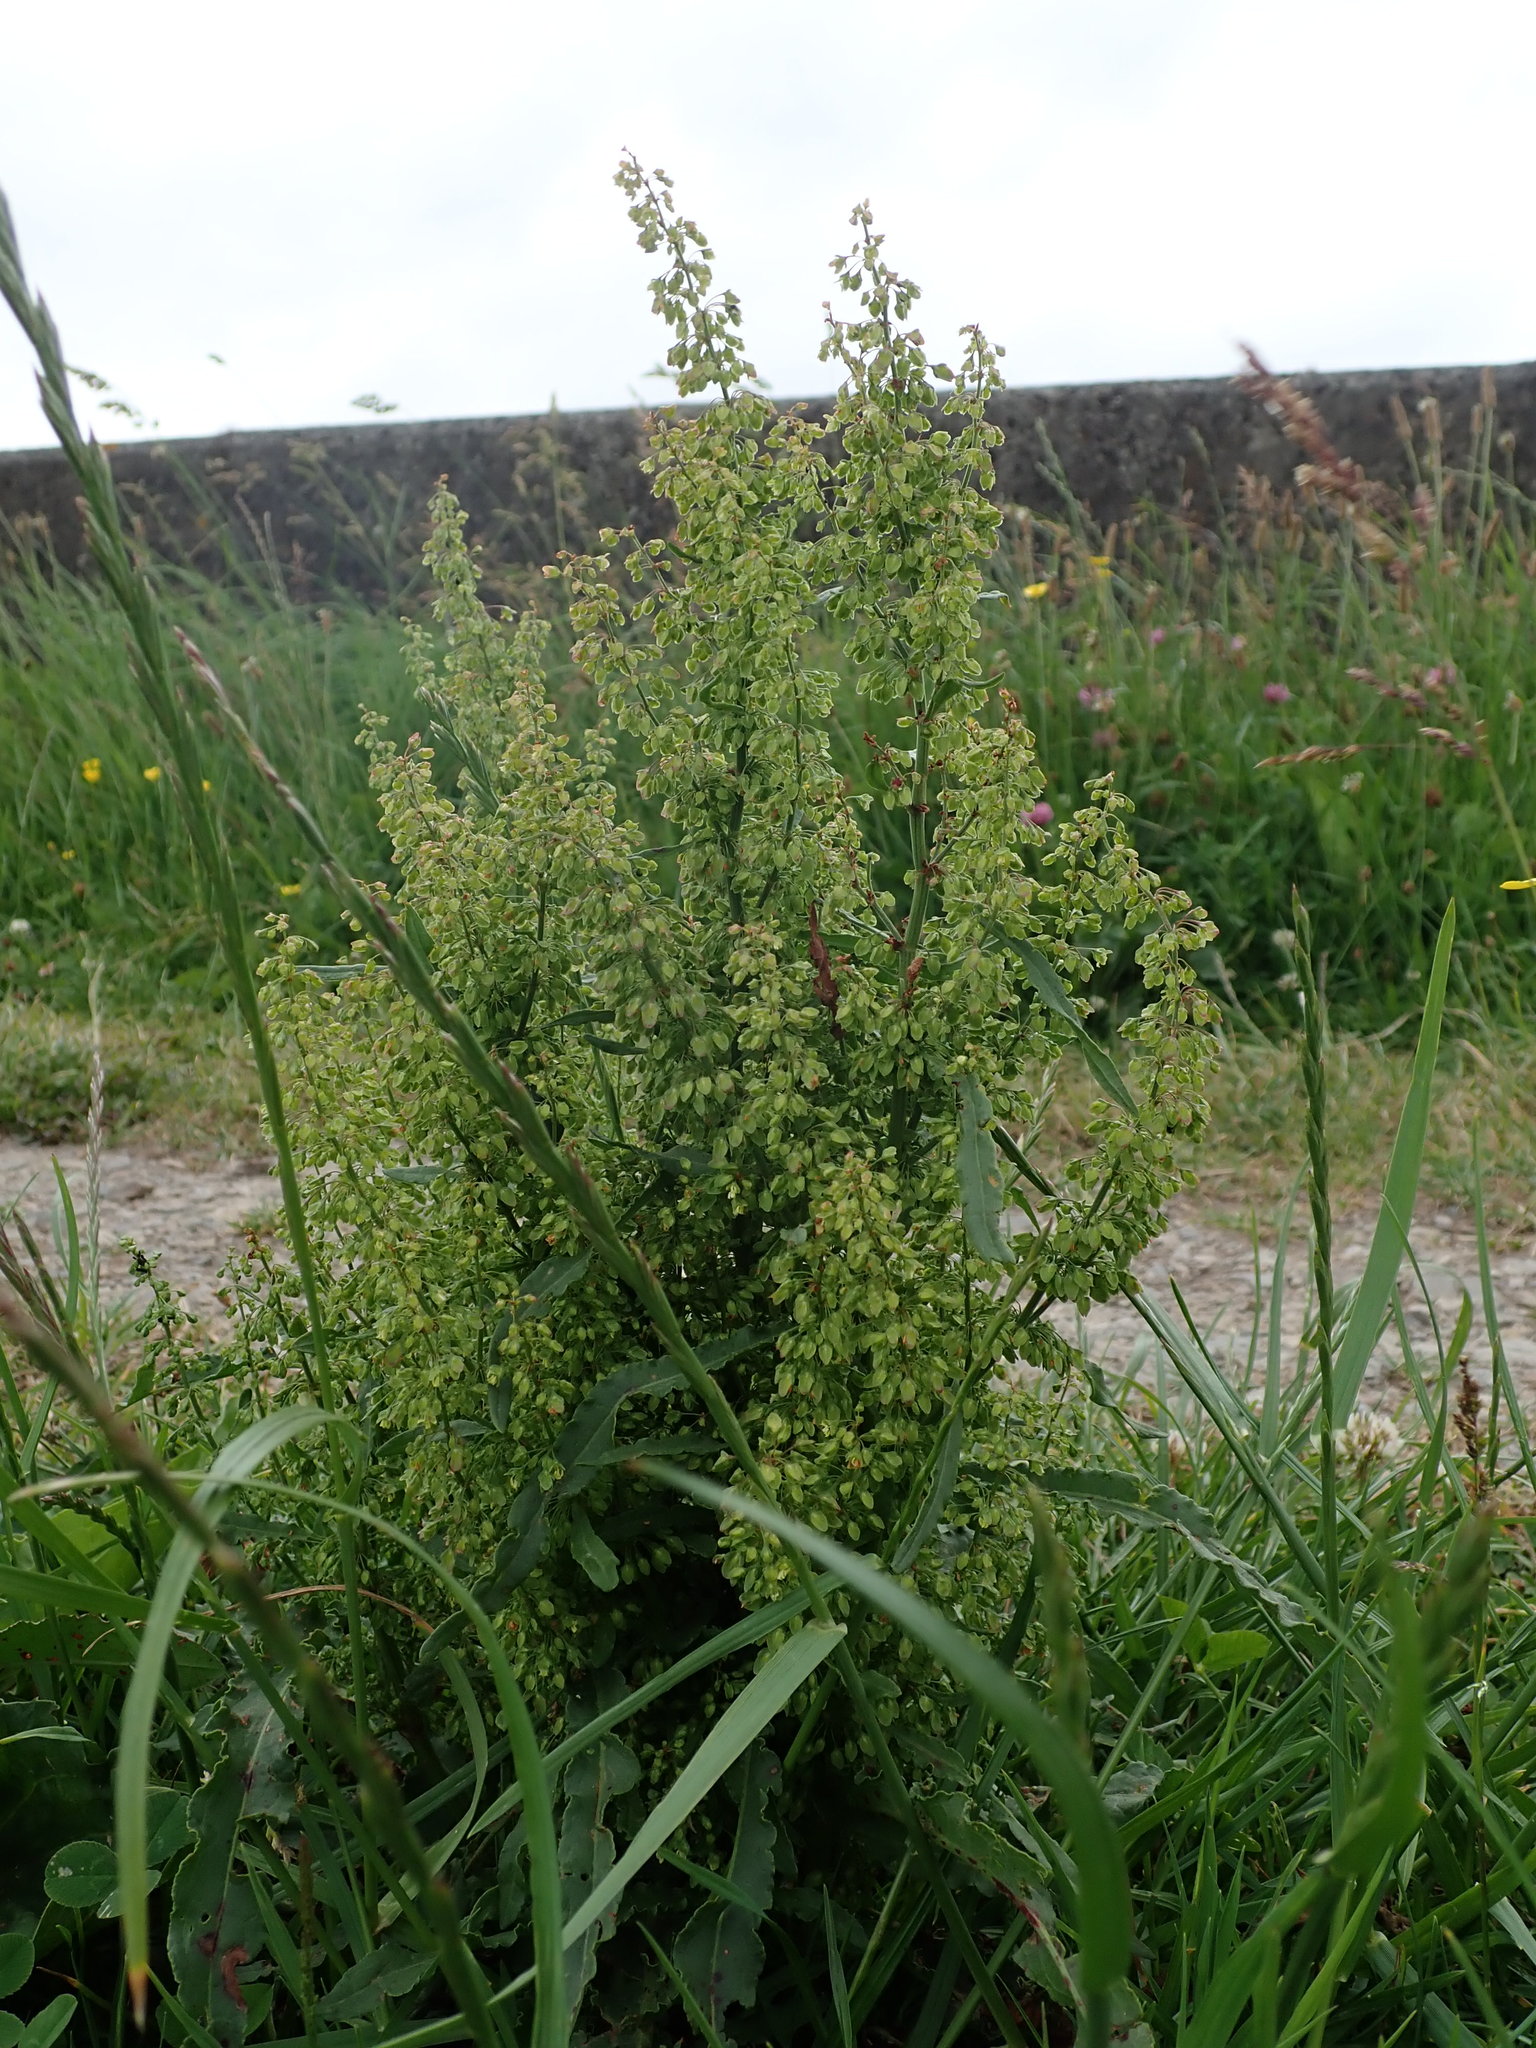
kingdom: Plantae
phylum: Tracheophyta
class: Magnoliopsida
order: Caryophyllales
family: Polygonaceae
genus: Rumex
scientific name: Rumex crispus
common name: Curled dock
